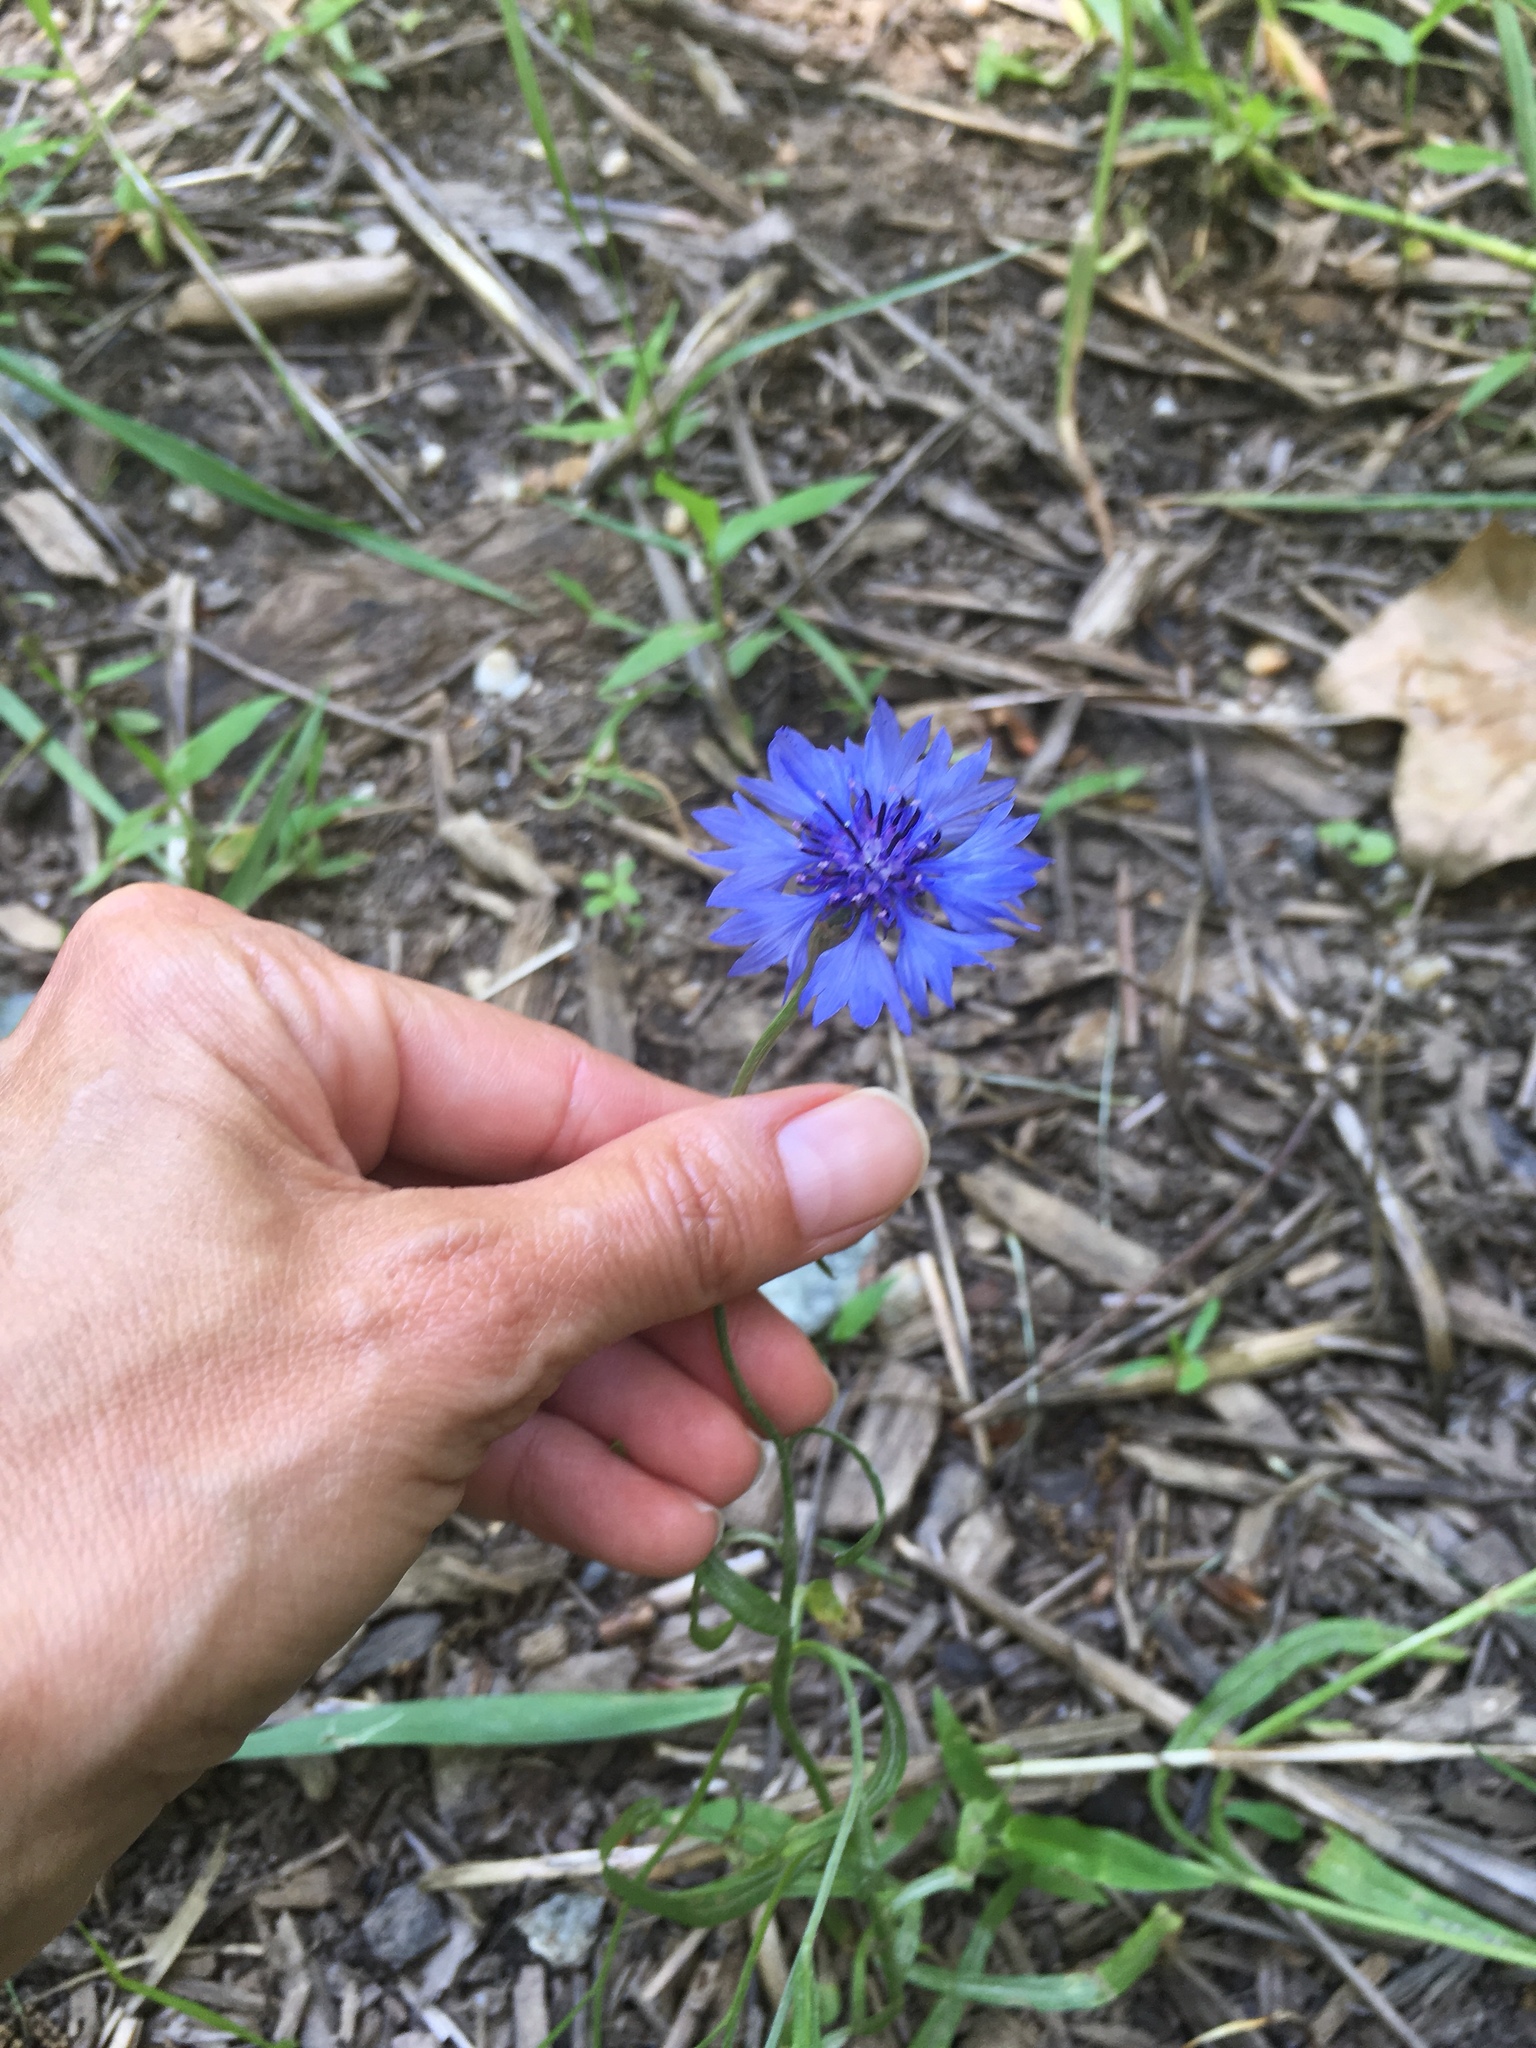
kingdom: Plantae
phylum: Tracheophyta
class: Magnoliopsida
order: Asterales
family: Asteraceae
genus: Centaurea
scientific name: Centaurea cyanus
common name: Cornflower
